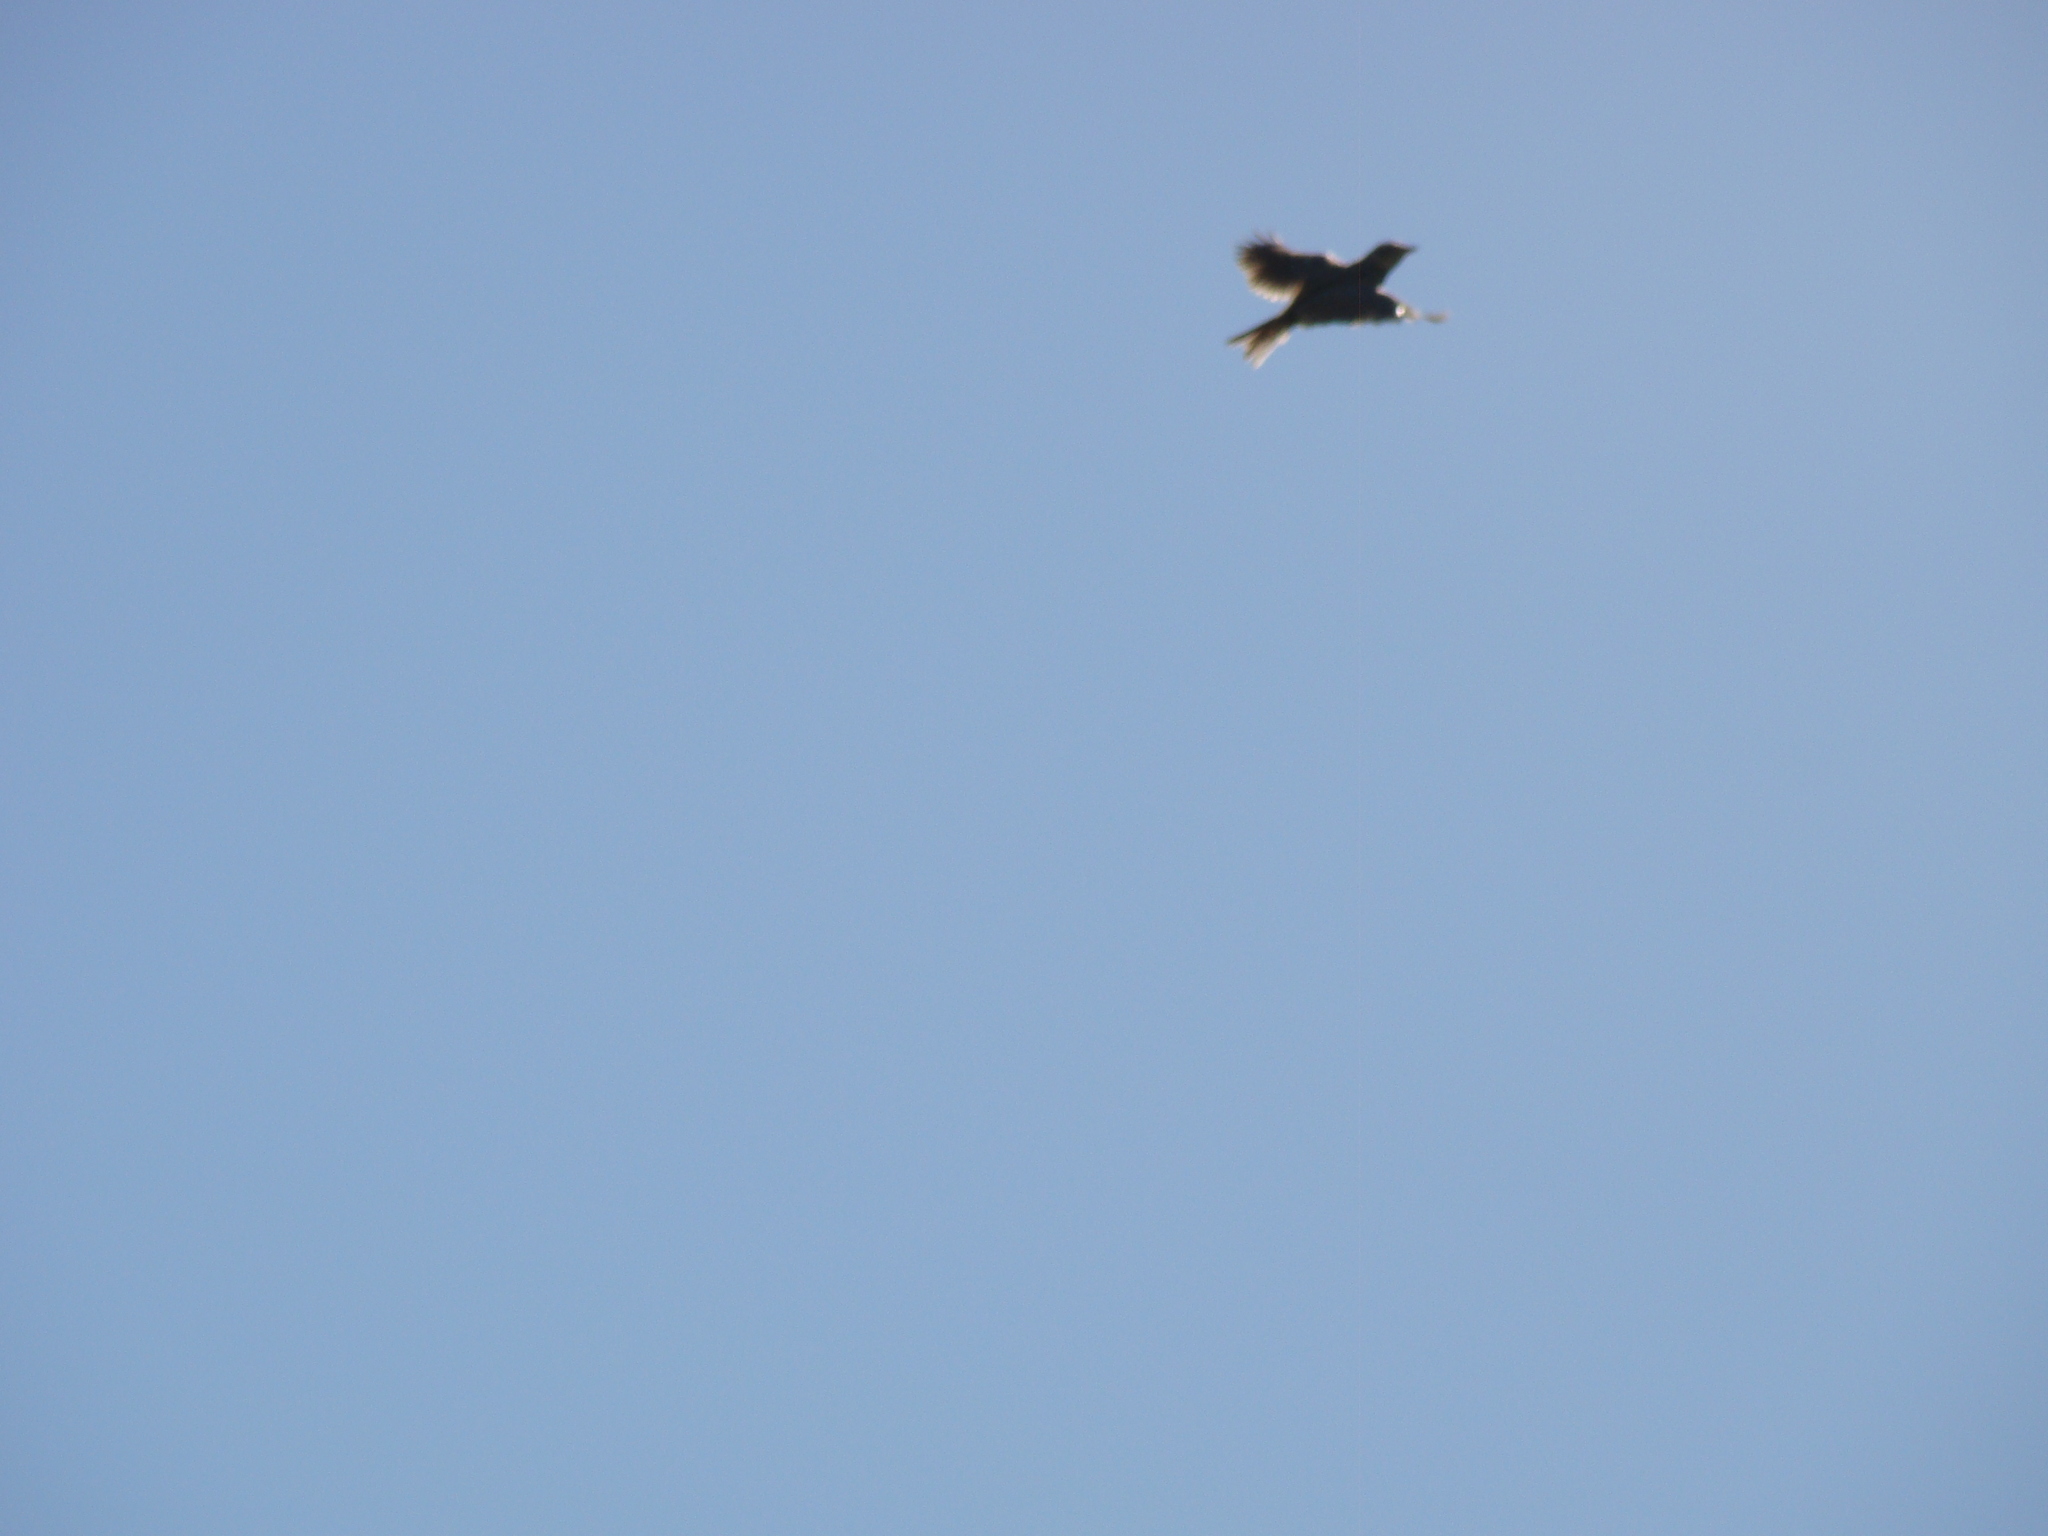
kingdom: Animalia
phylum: Chordata
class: Aves
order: Passeriformes
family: Alaudidae
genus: Alauda
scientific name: Alauda arvensis
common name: Eurasian skylark
